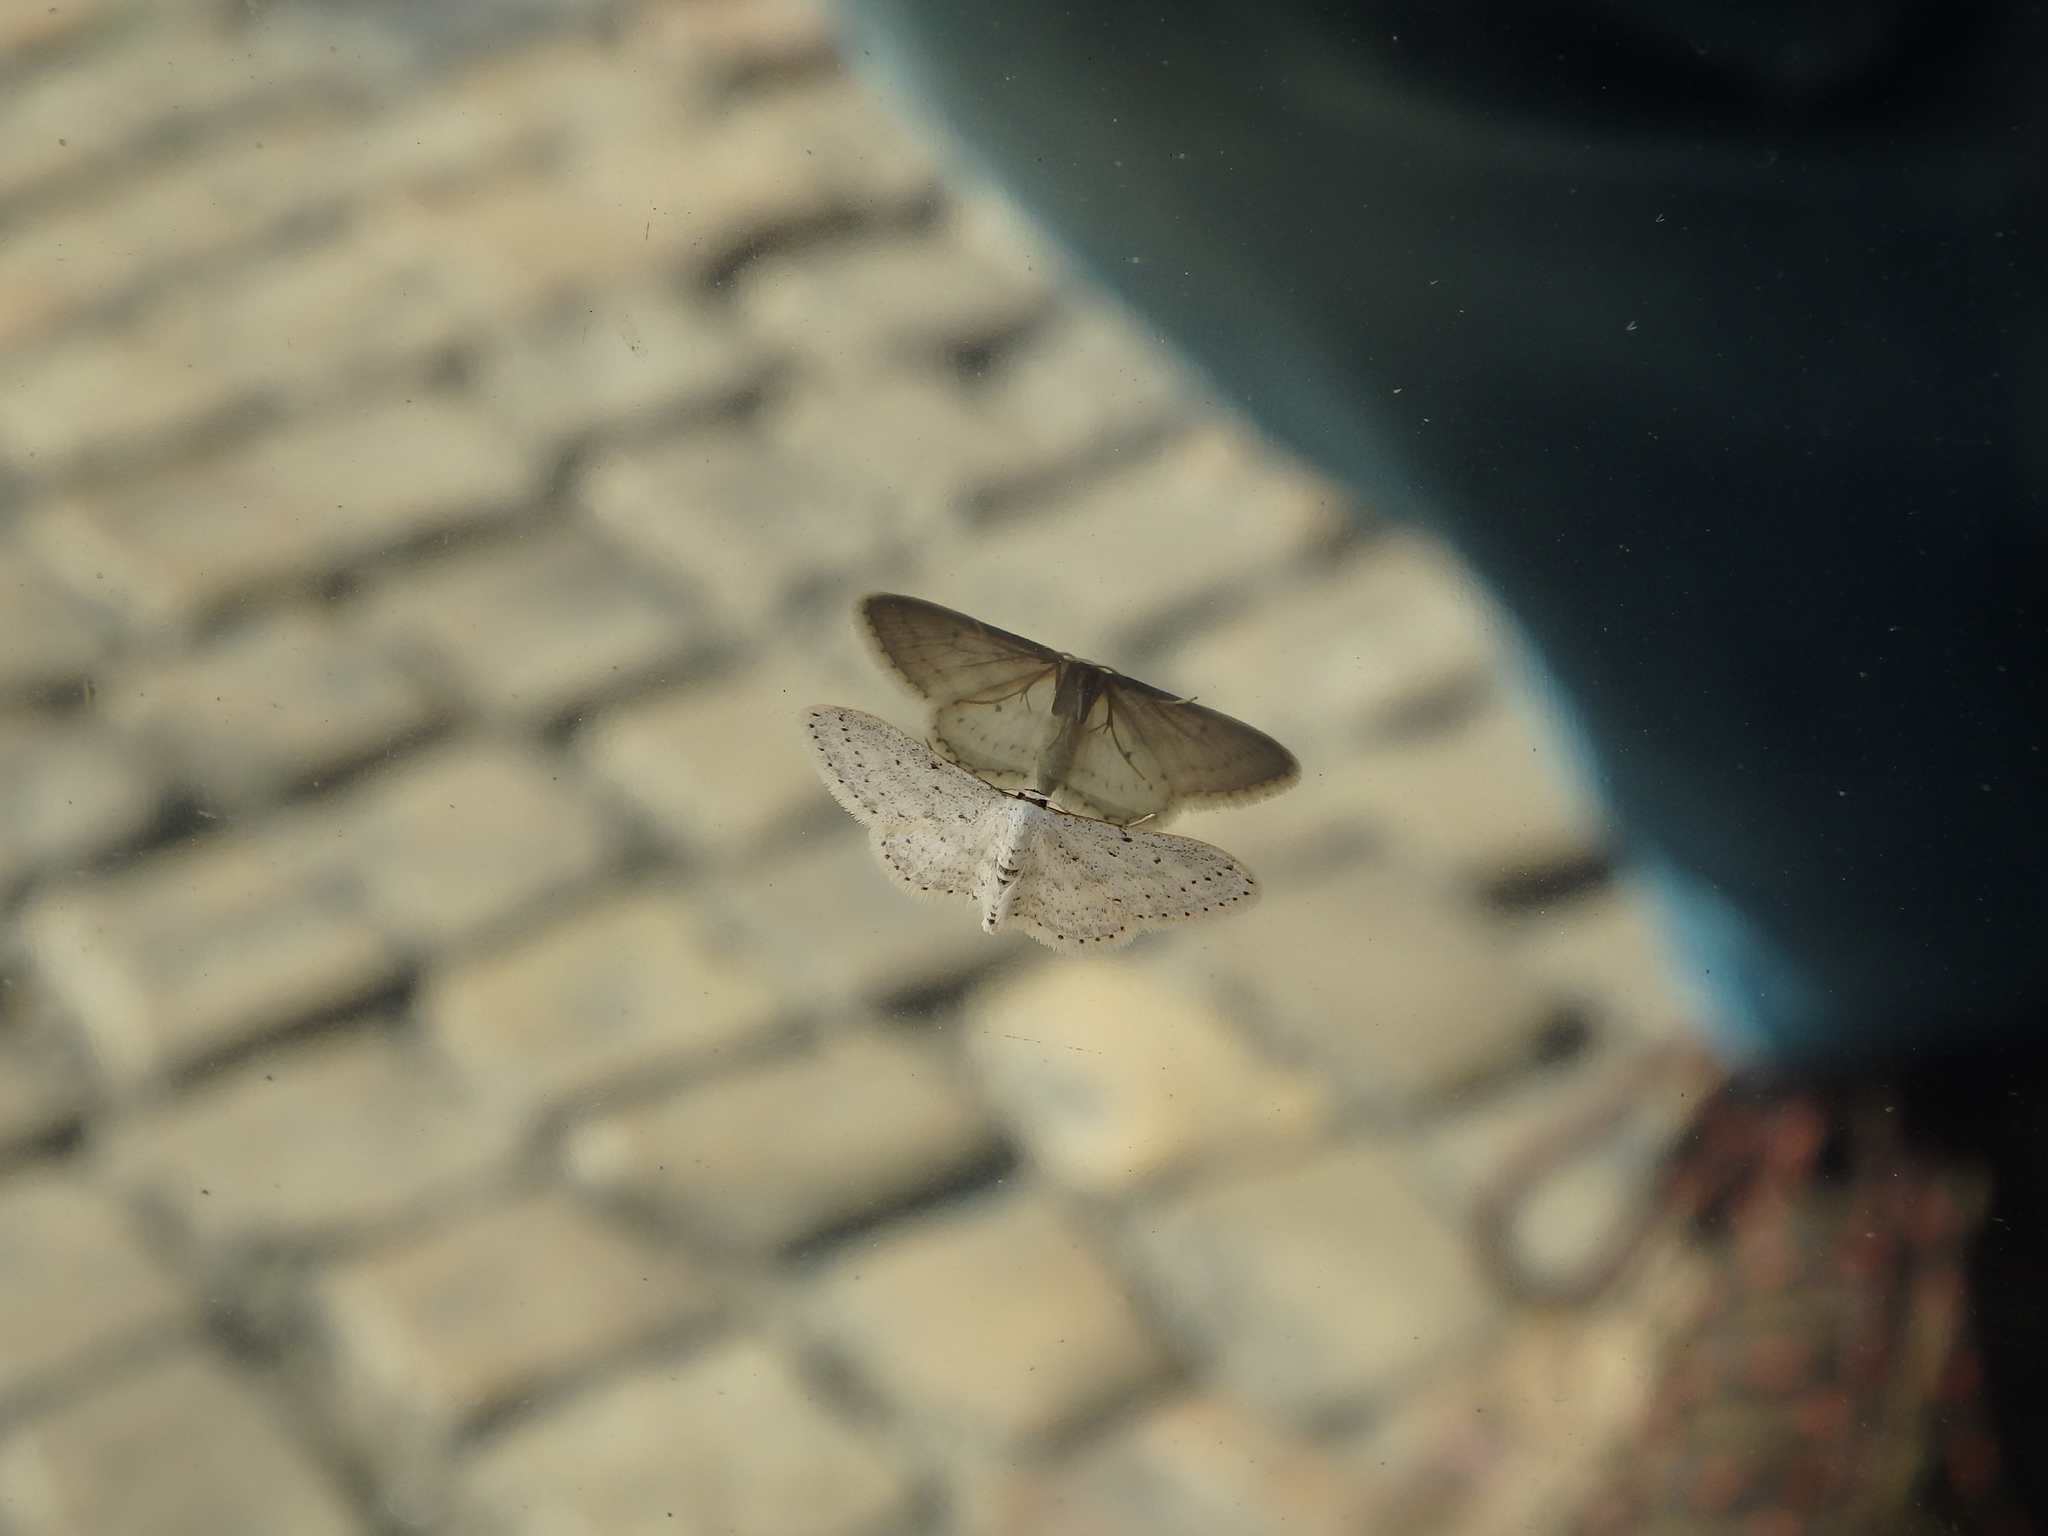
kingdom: Animalia
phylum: Arthropoda
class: Insecta
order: Lepidoptera
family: Geometridae
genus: Idaea
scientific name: Idaea seriata
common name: Small dusty wave
